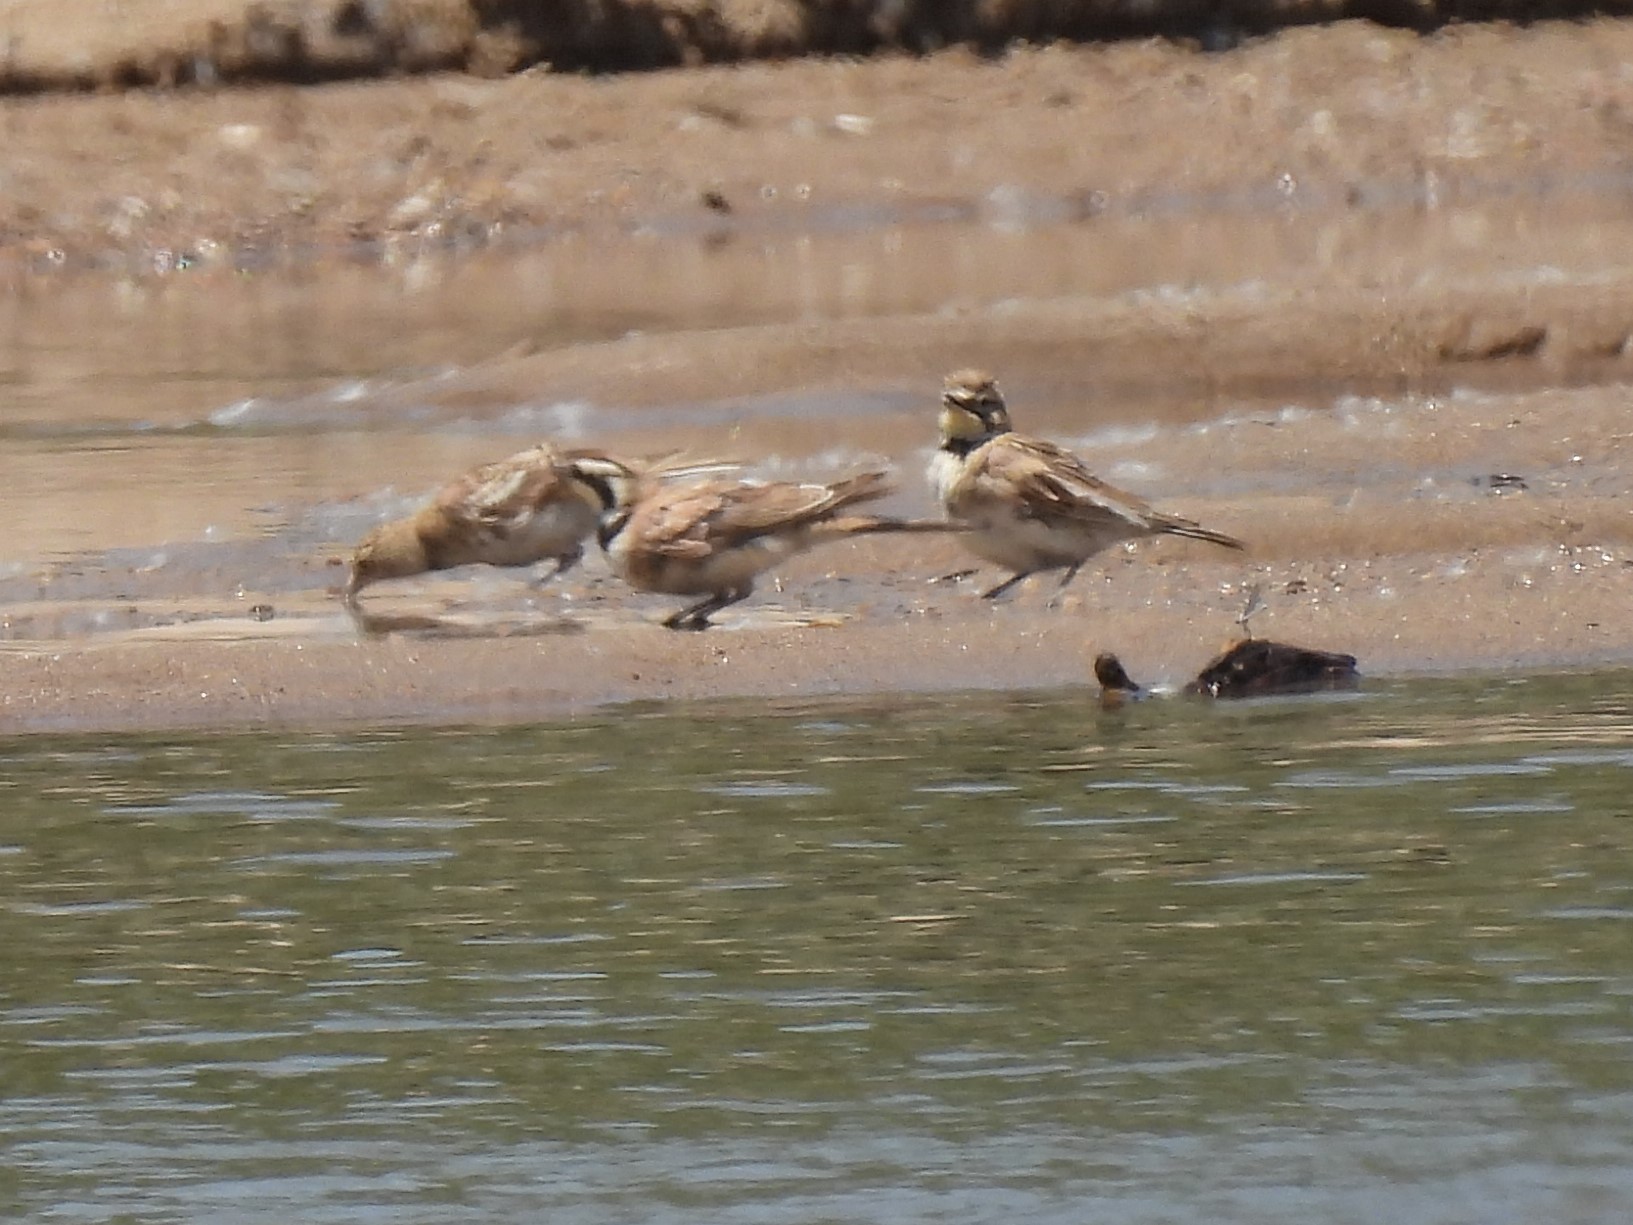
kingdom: Animalia
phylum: Chordata
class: Aves
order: Passeriformes
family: Alaudidae
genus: Eremophila
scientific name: Eremophila alpestris
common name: Horned lark
